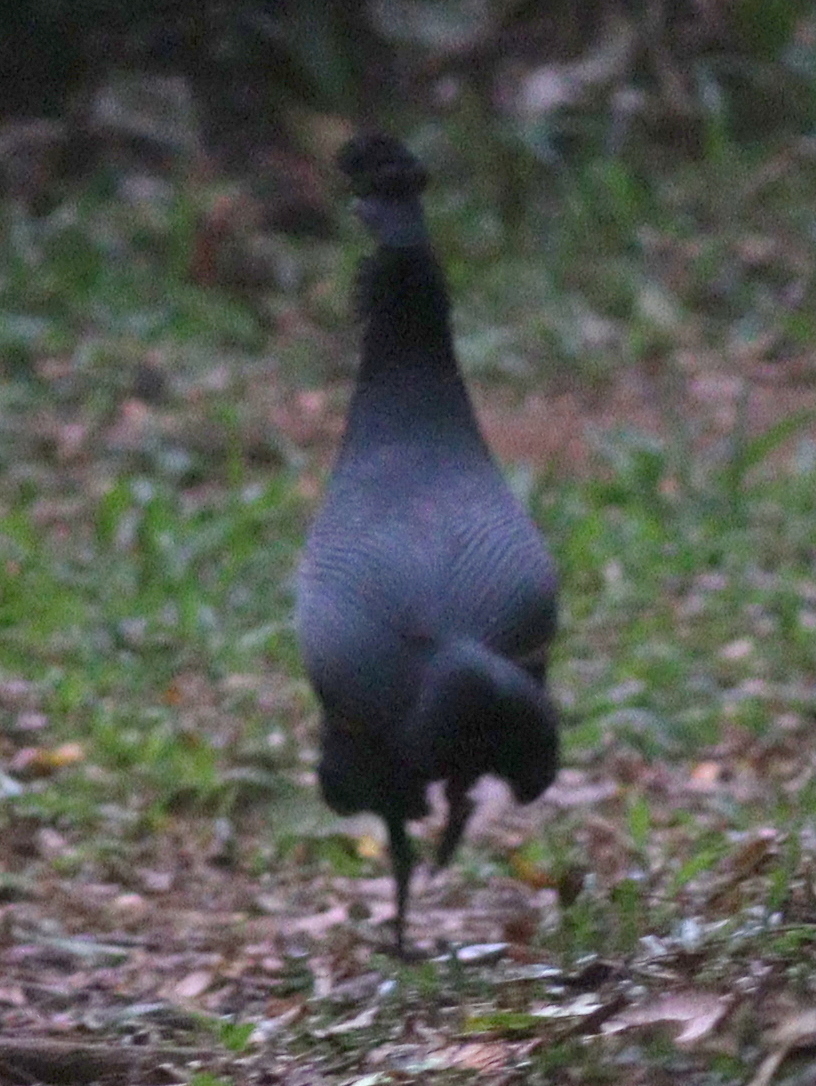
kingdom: Animalia
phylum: Chordata
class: Aves
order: Galliformes
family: Numididae
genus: Guttera
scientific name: Guttera pucherani
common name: Crested guineafowl
